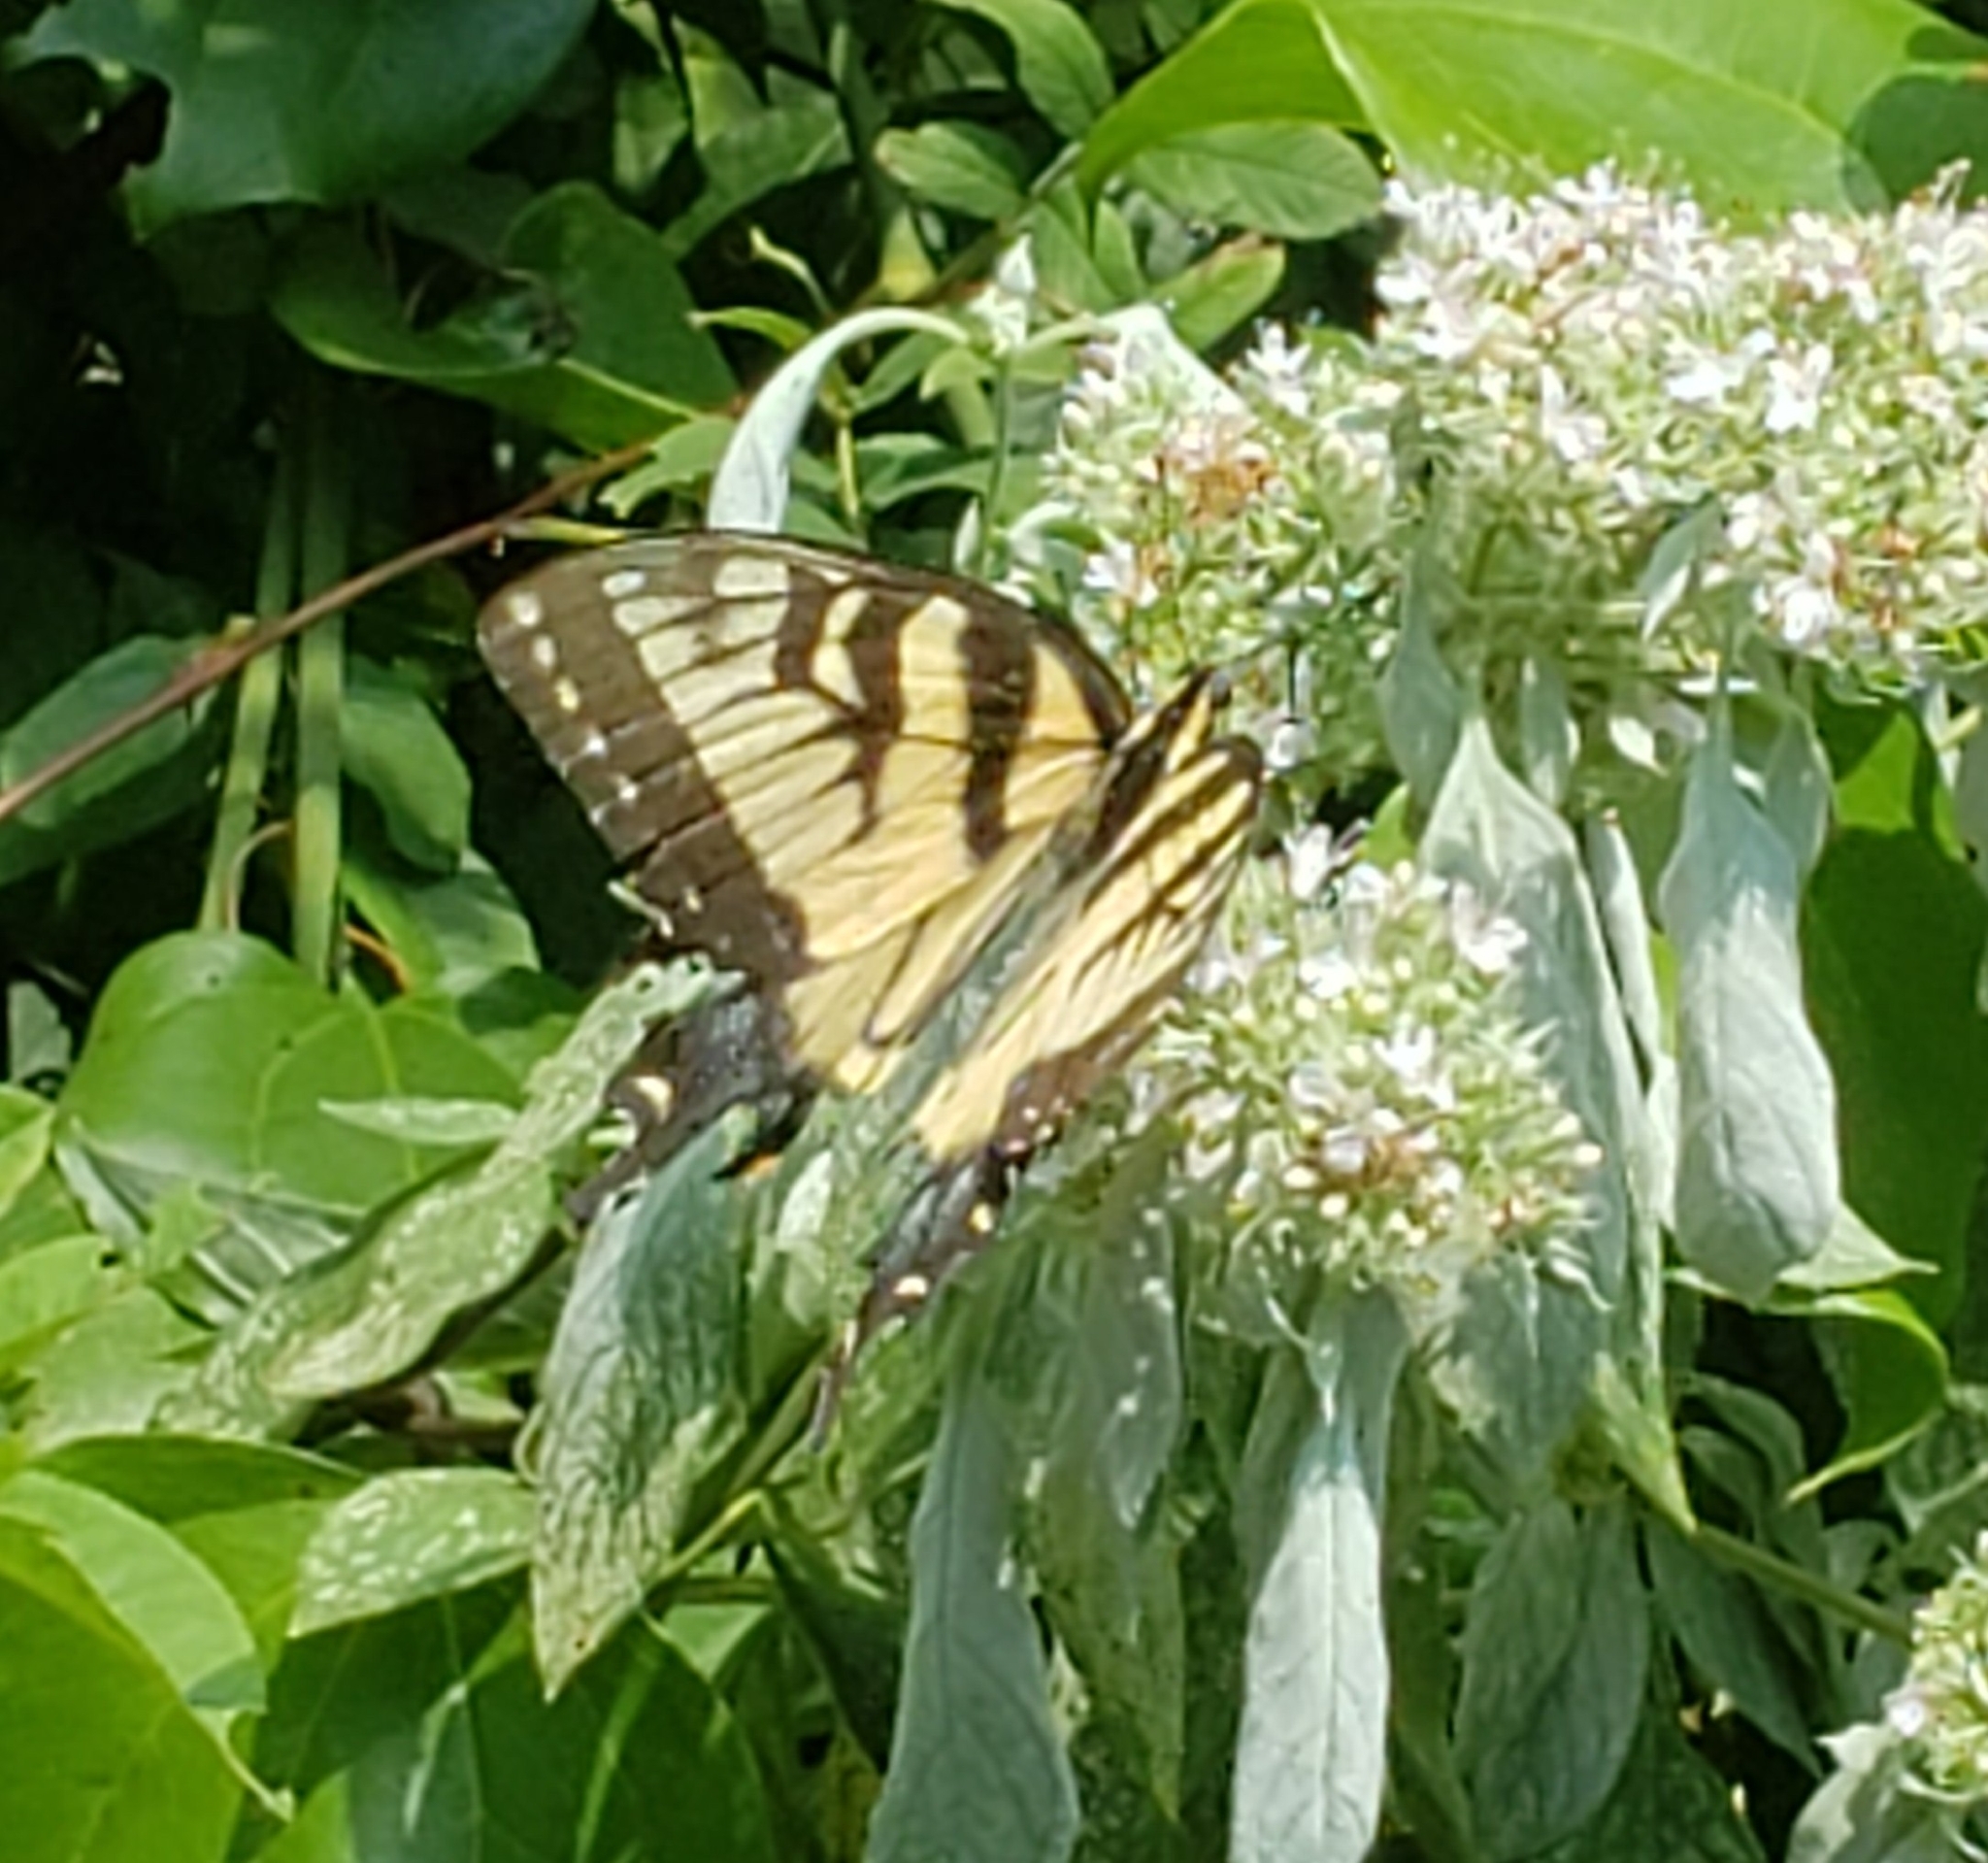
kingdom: Animalia
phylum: Arthropoda
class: Insecta
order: Lepidoptera
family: Papilionidae
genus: Papilio
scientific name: Papilio glaucus
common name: Tiger swallowtail
